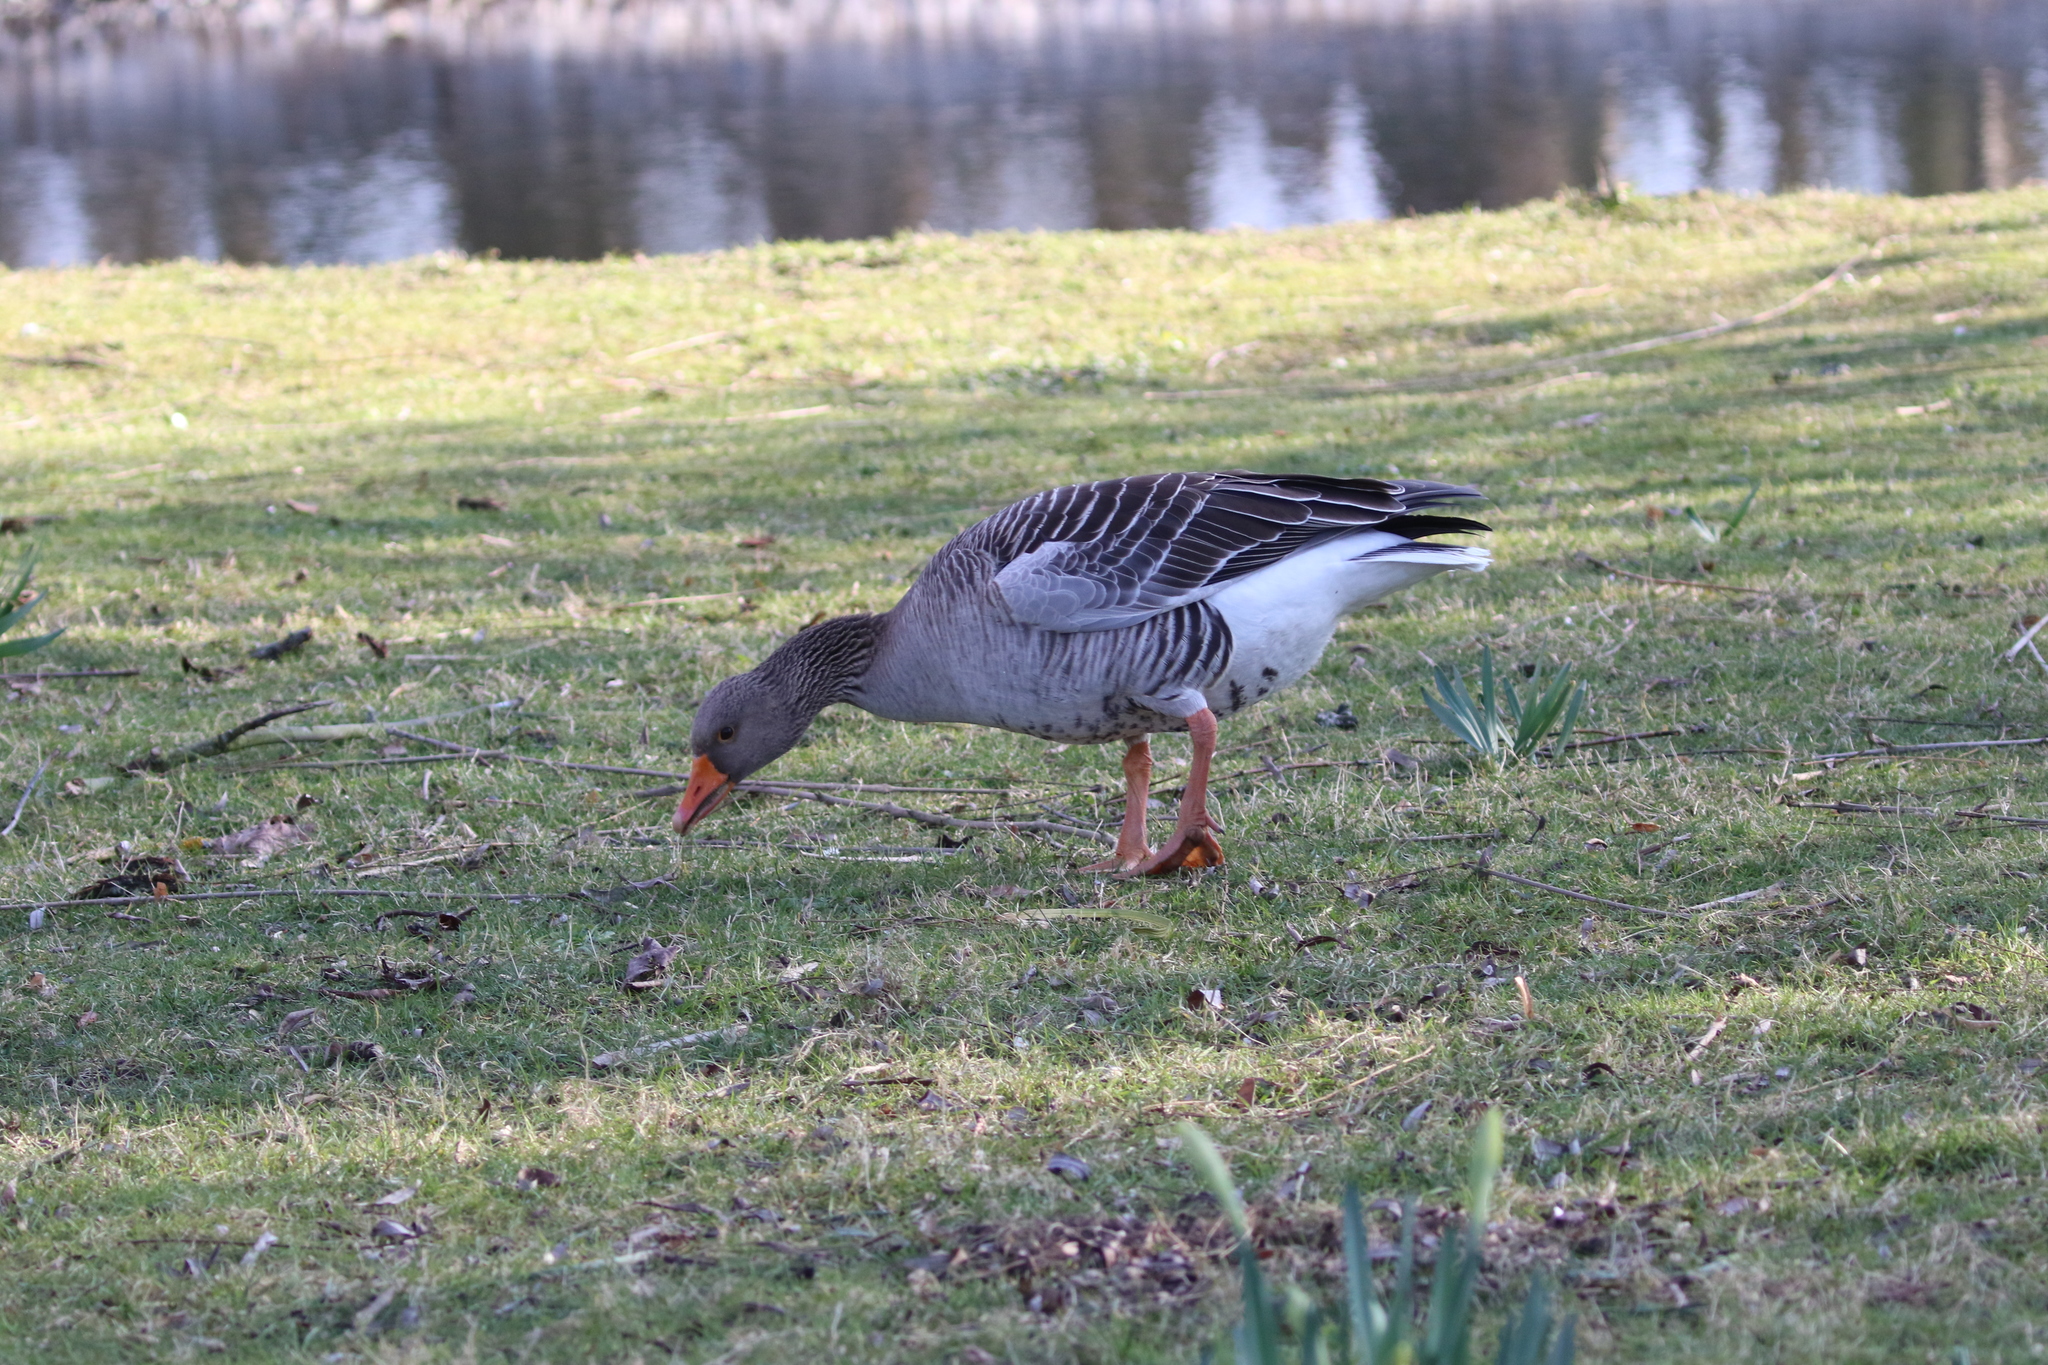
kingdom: Animalia
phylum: Chordata
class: Aves
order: Anseriformes
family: Anatidae
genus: Anser
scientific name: Anser anser
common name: Greylag goose
